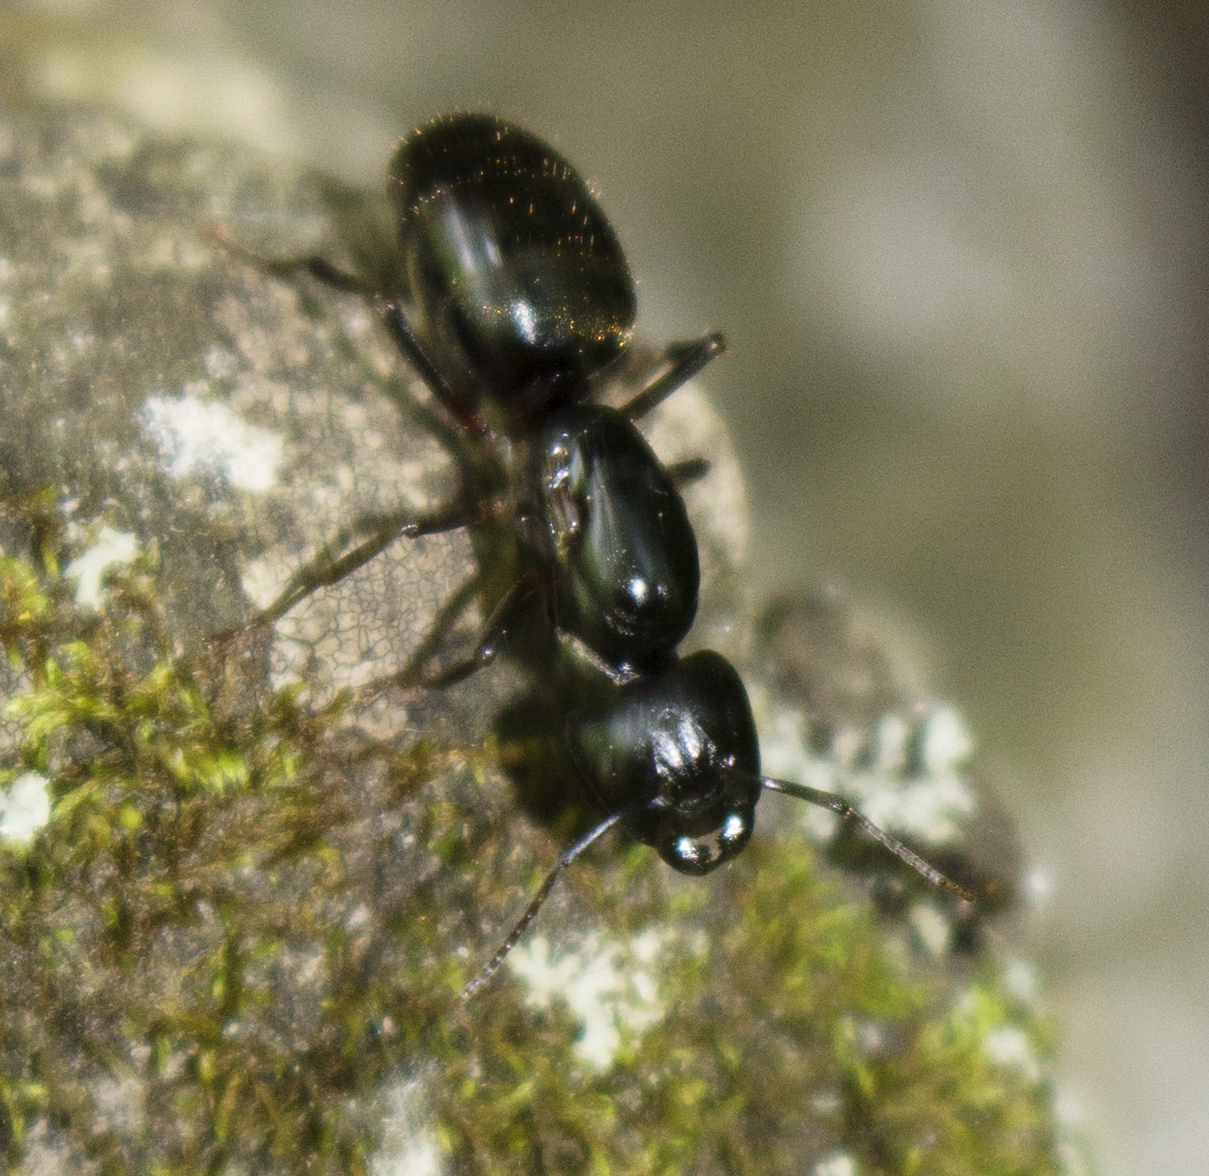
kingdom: Animalia
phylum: Arthropoda
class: Insecta
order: Hymenoptera
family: Formicidae
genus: Camponotus
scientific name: Camponotus pennsylvanicus
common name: Black carpenter ant
